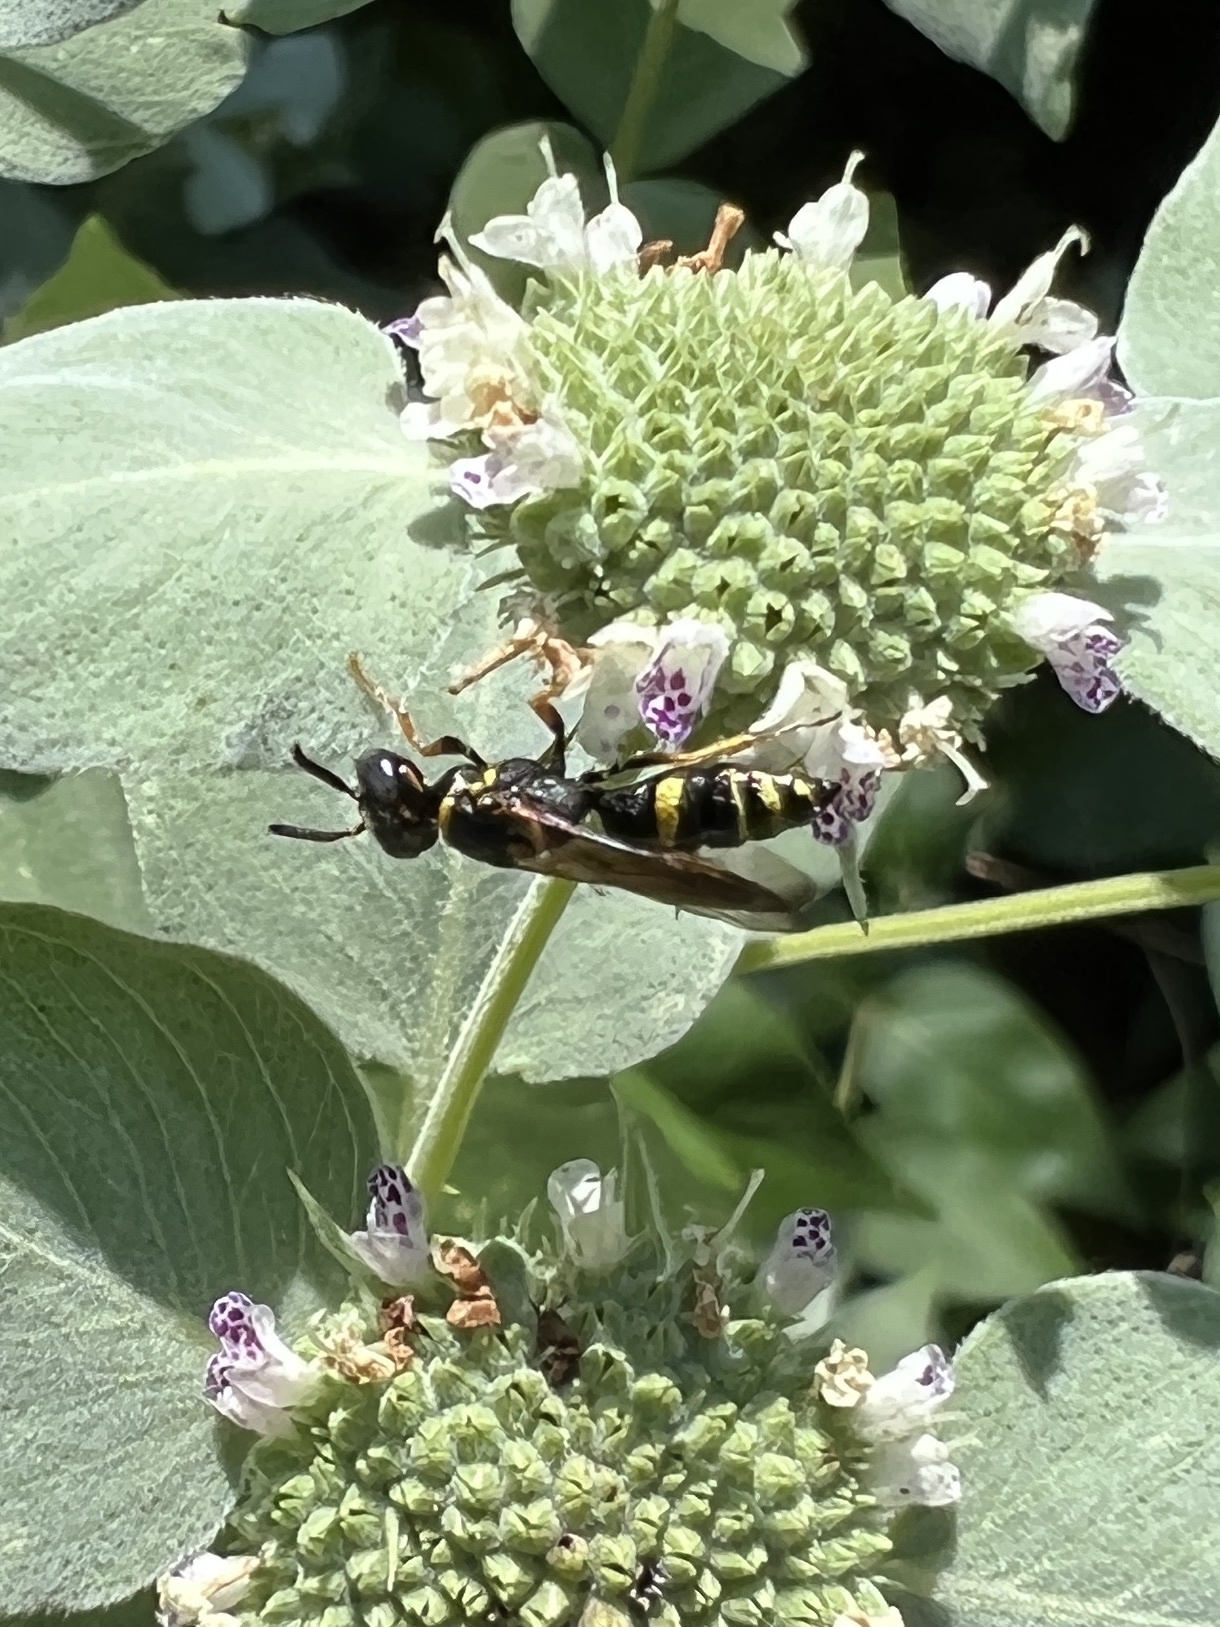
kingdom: Animalia
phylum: Arthropoda
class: Insecta
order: Hymenoptera
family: Crabronidae
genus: Philanthus
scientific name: Philanthus gibbosus
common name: Humped beewolf
